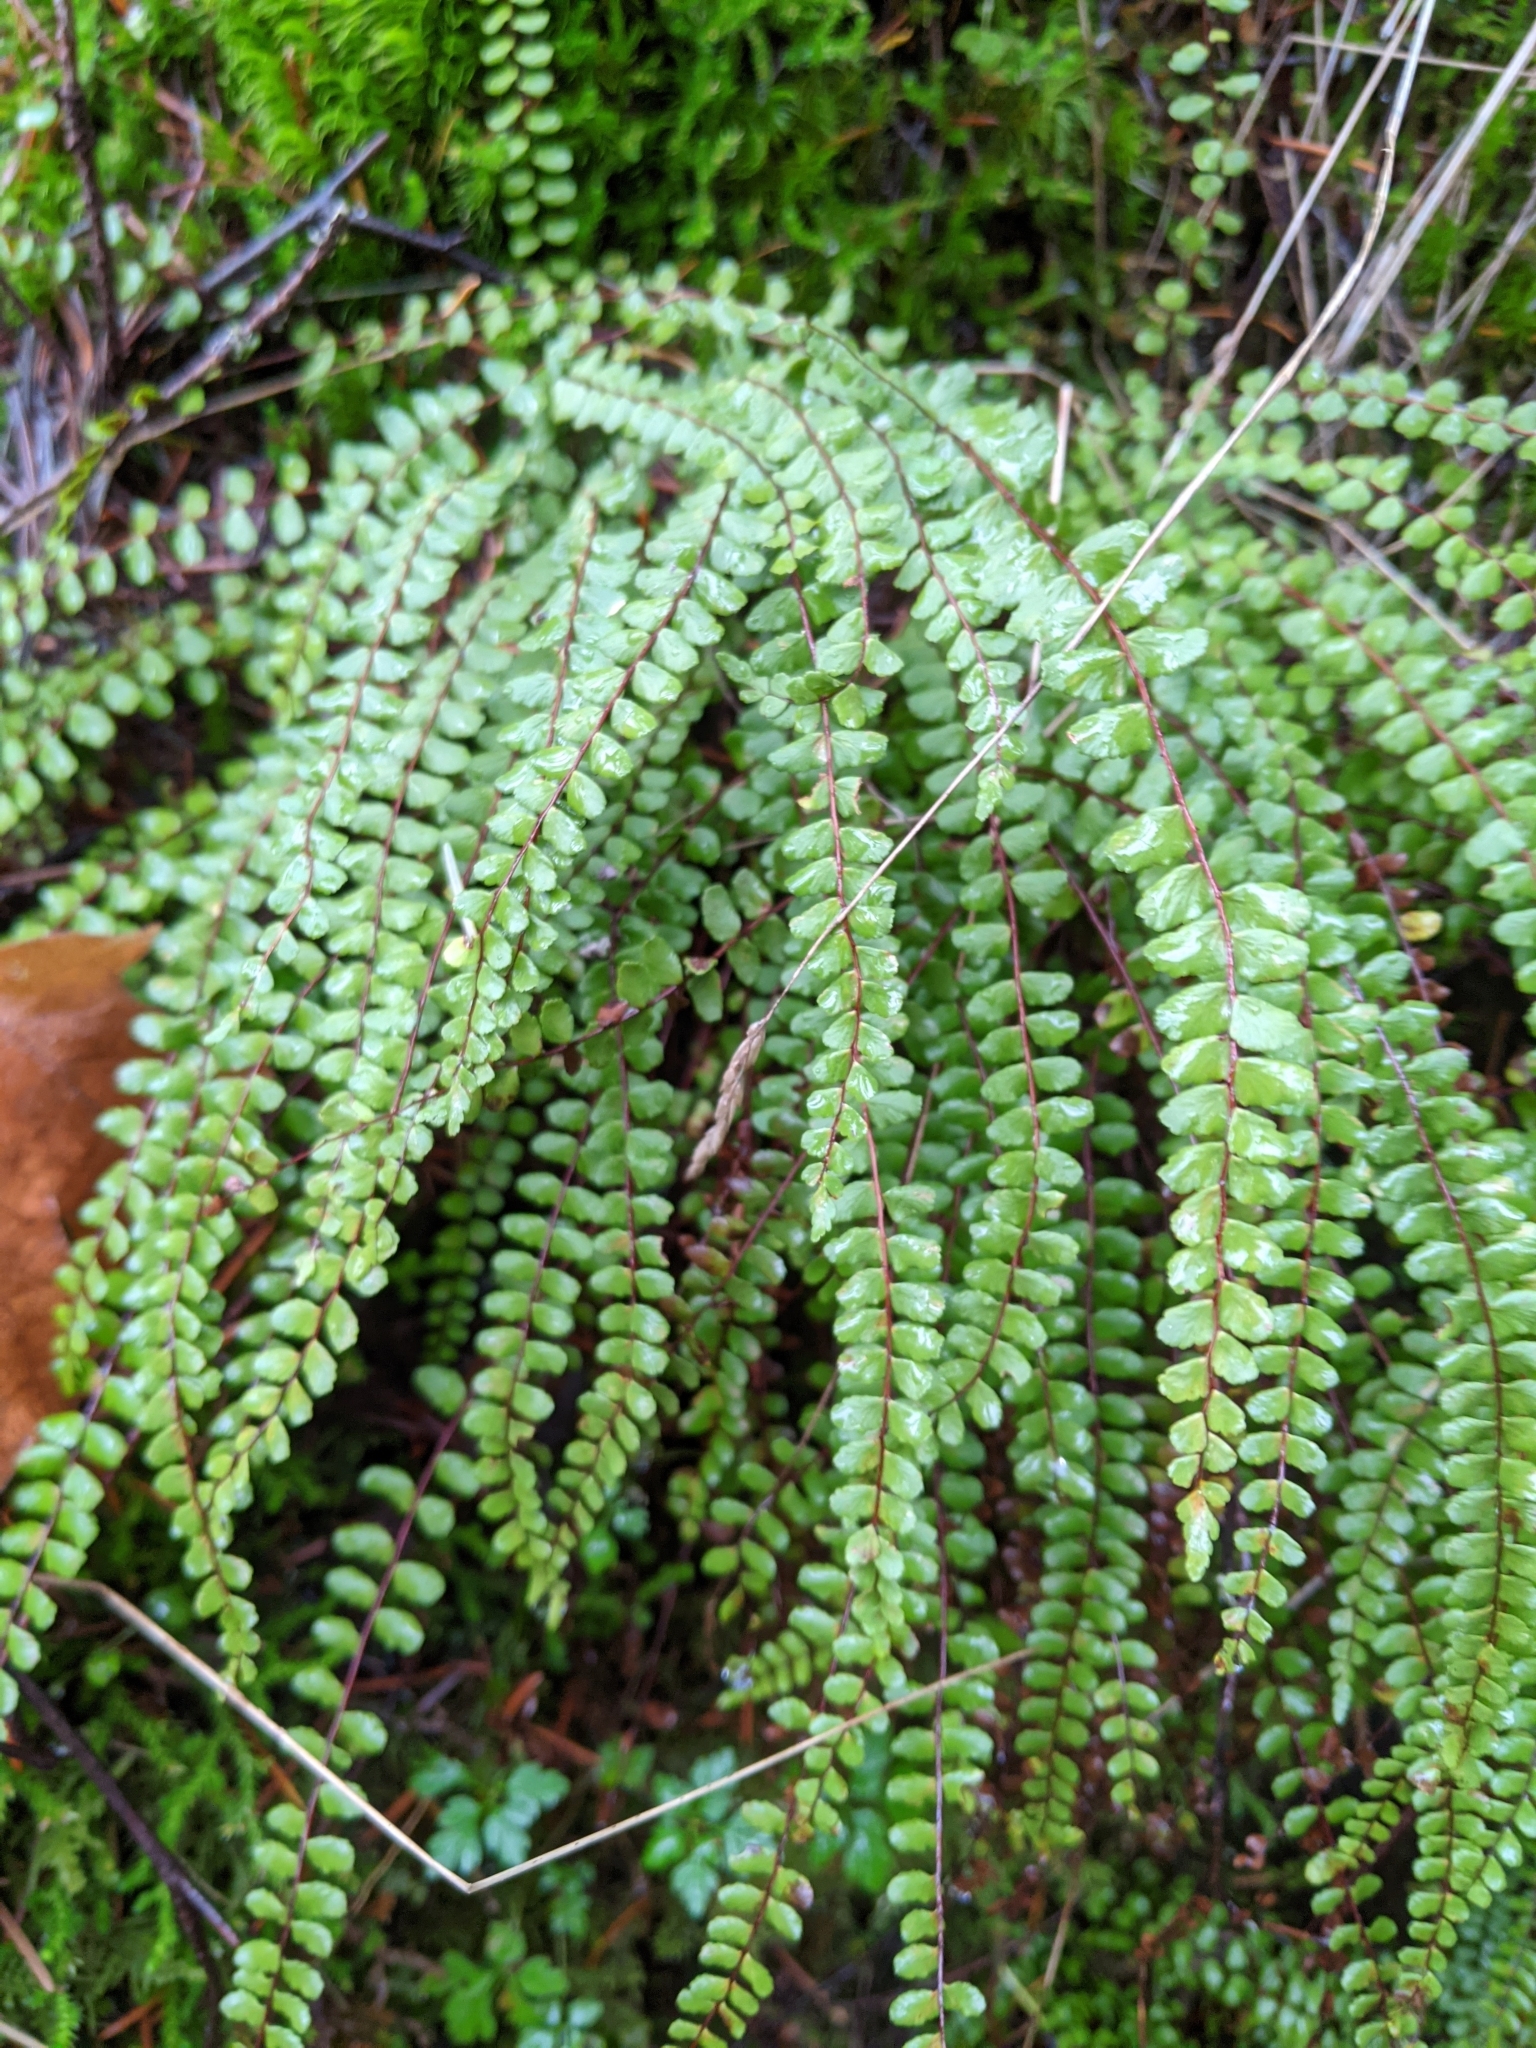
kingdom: Plantae
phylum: Tracheophyta
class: Polypodiopsida
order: Polypodiales
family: Aspleniaceae
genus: Asplenium
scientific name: Asplenium trichomanes
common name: Maidenhair spleenwort
